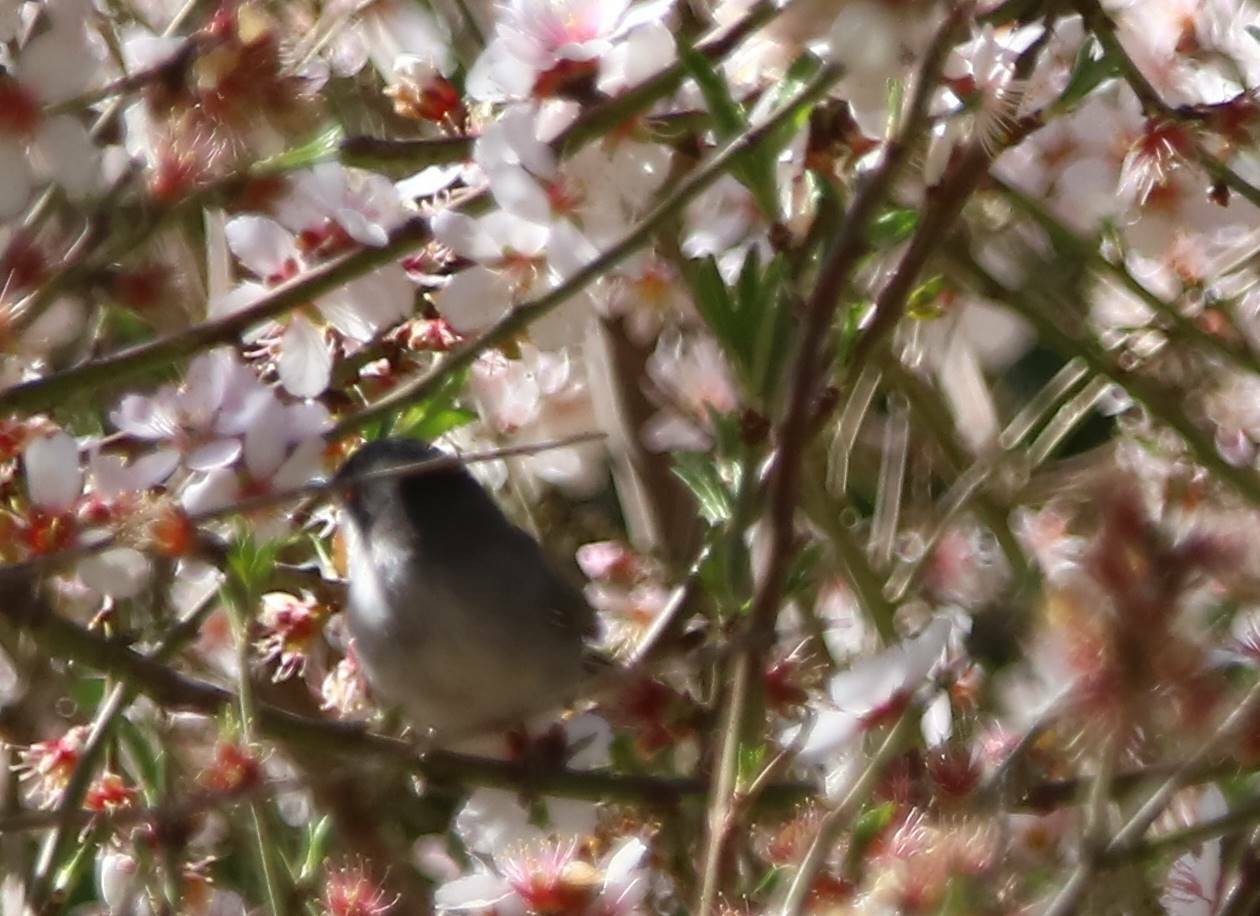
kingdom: Animalia
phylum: Chordata
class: Aves
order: Passeriformes
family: Sylviidae
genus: Curruca
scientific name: Curruca melanocephala
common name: Sardinian warbler
